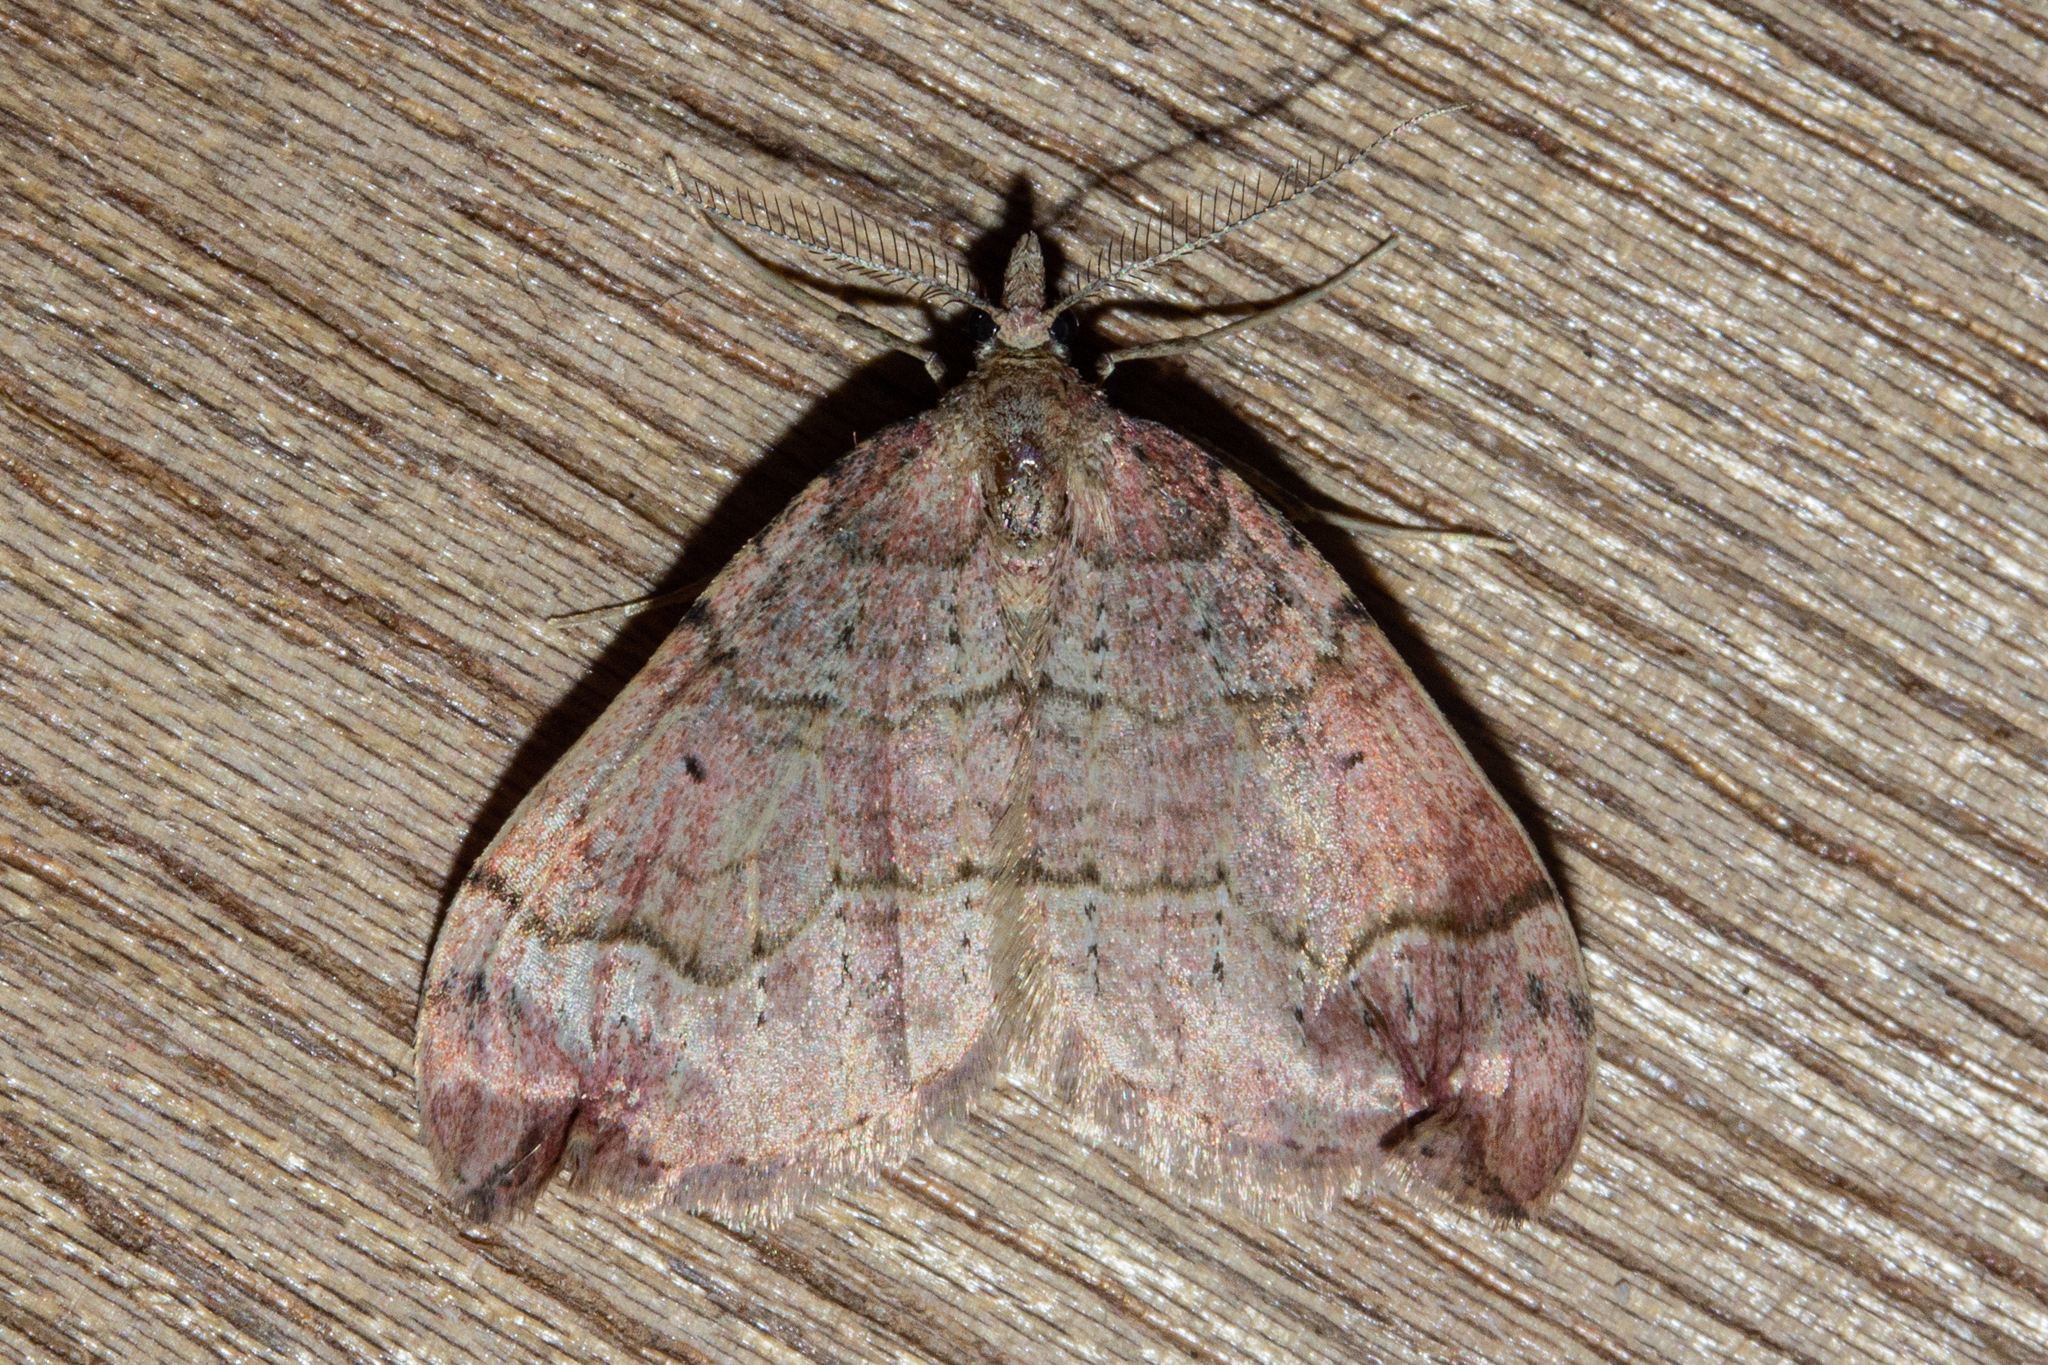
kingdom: Animalia
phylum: Arthropoda
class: Insecta
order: Lepidoptera
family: Geometridae
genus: Epyaxa
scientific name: Epyaxa rosearia
